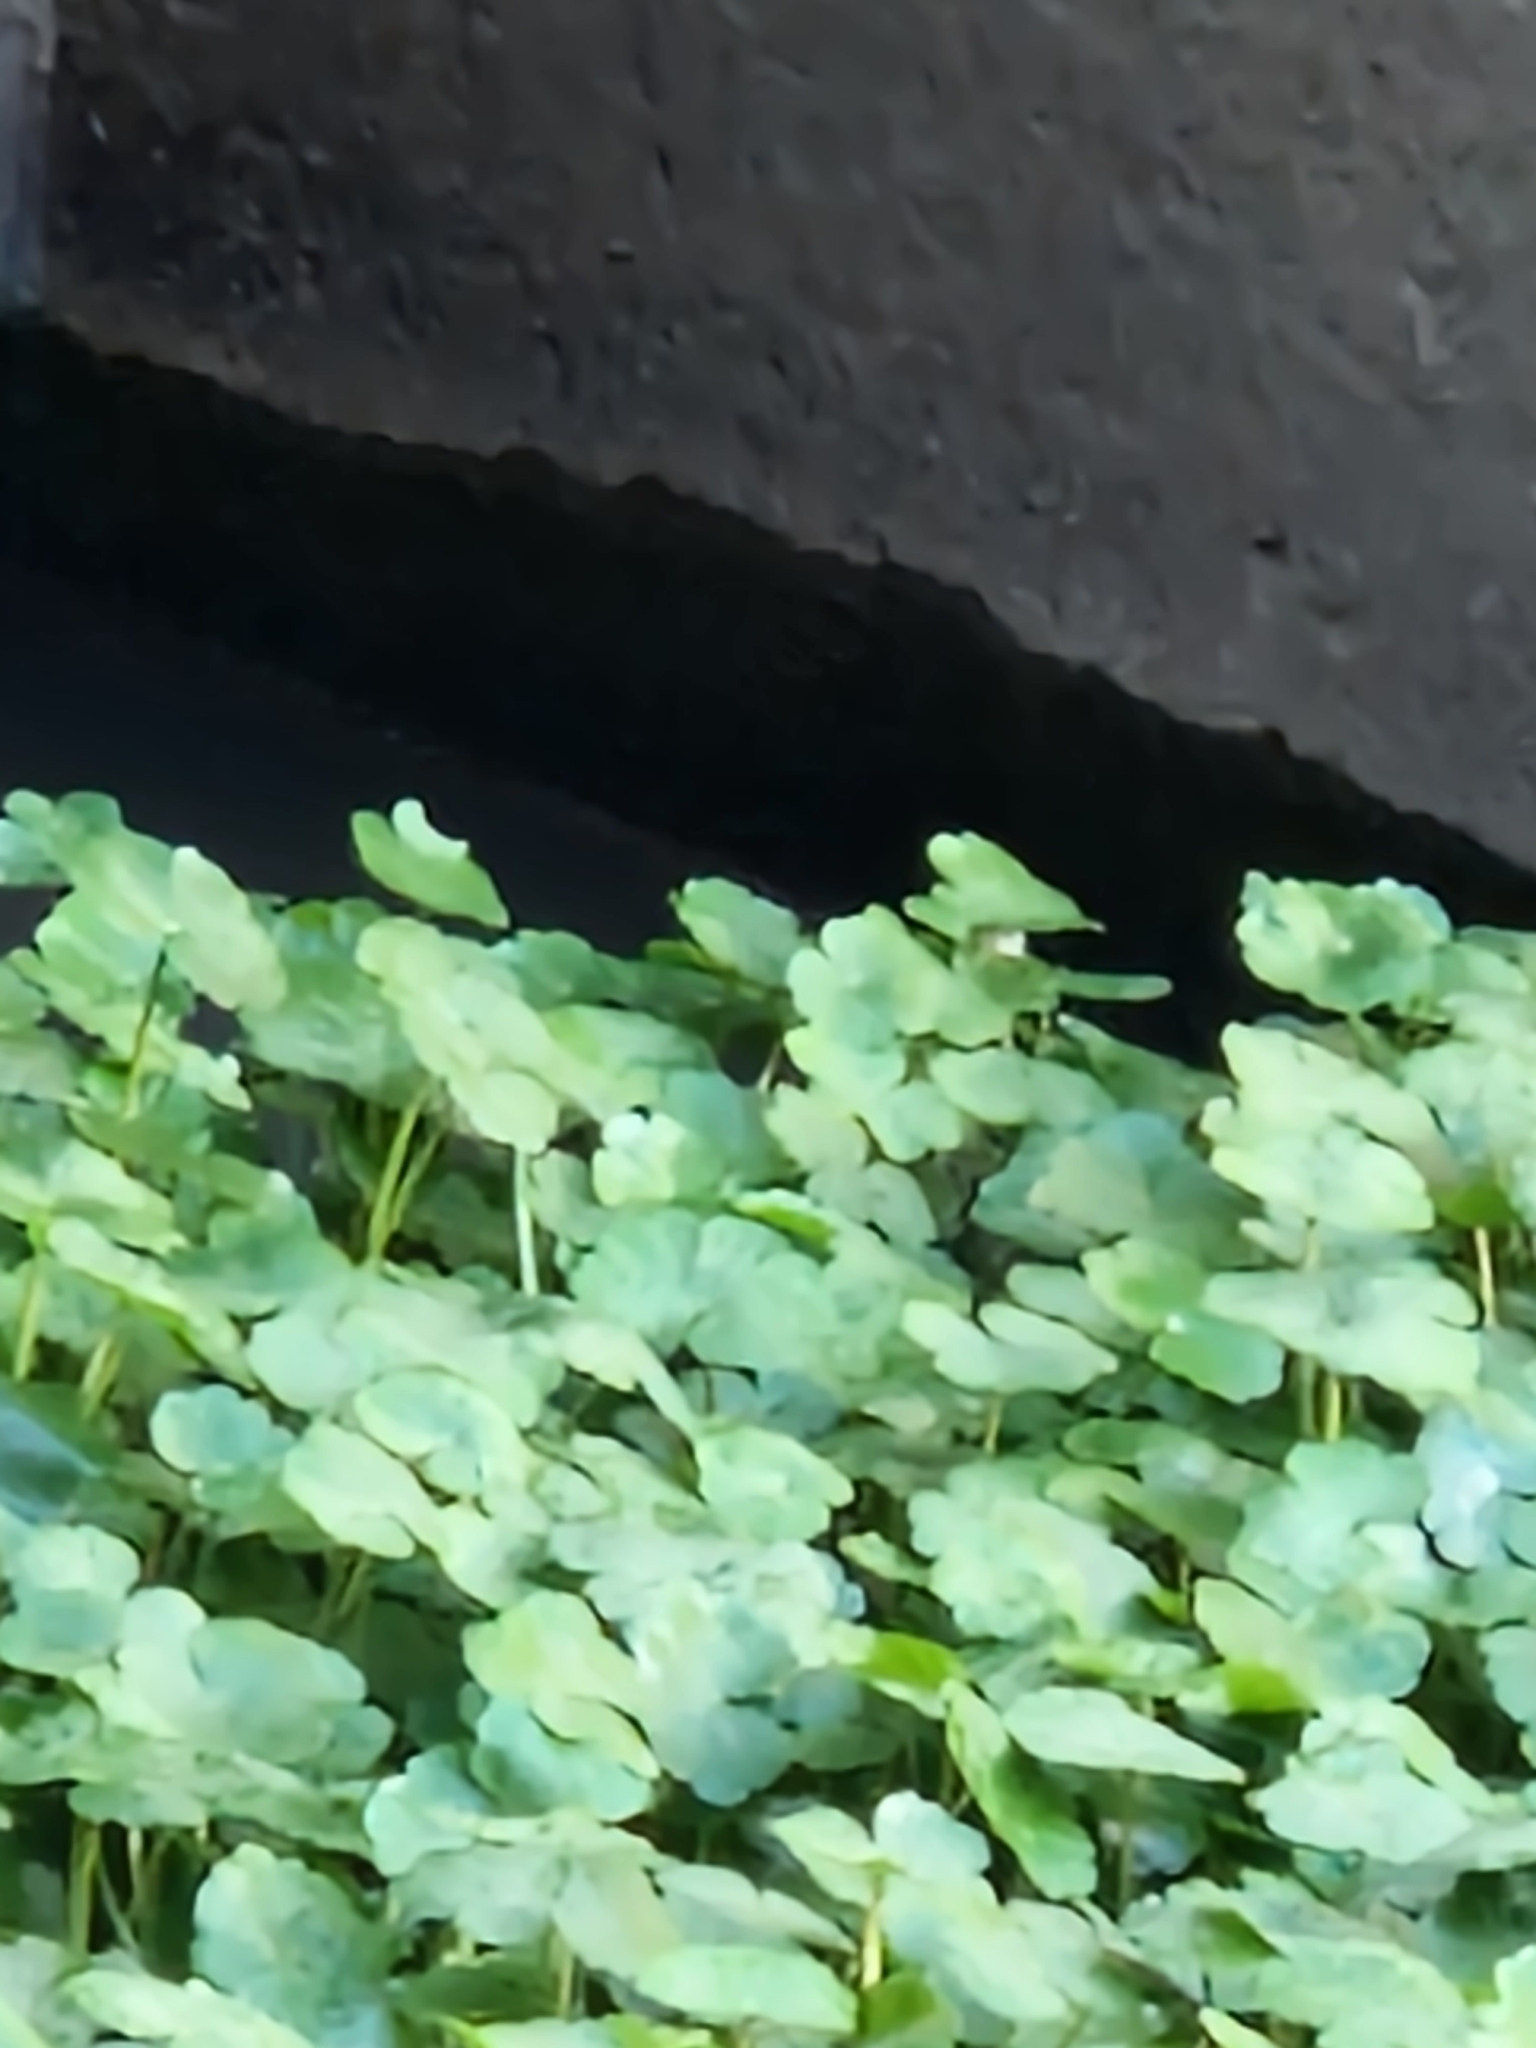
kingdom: Plantae
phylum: Tracheophyta
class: Magnoliopsida
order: Apiales
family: Araliaceae
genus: Hydrocotyle
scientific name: Hydrocotyle ranunculoides
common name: Floating pennywort
